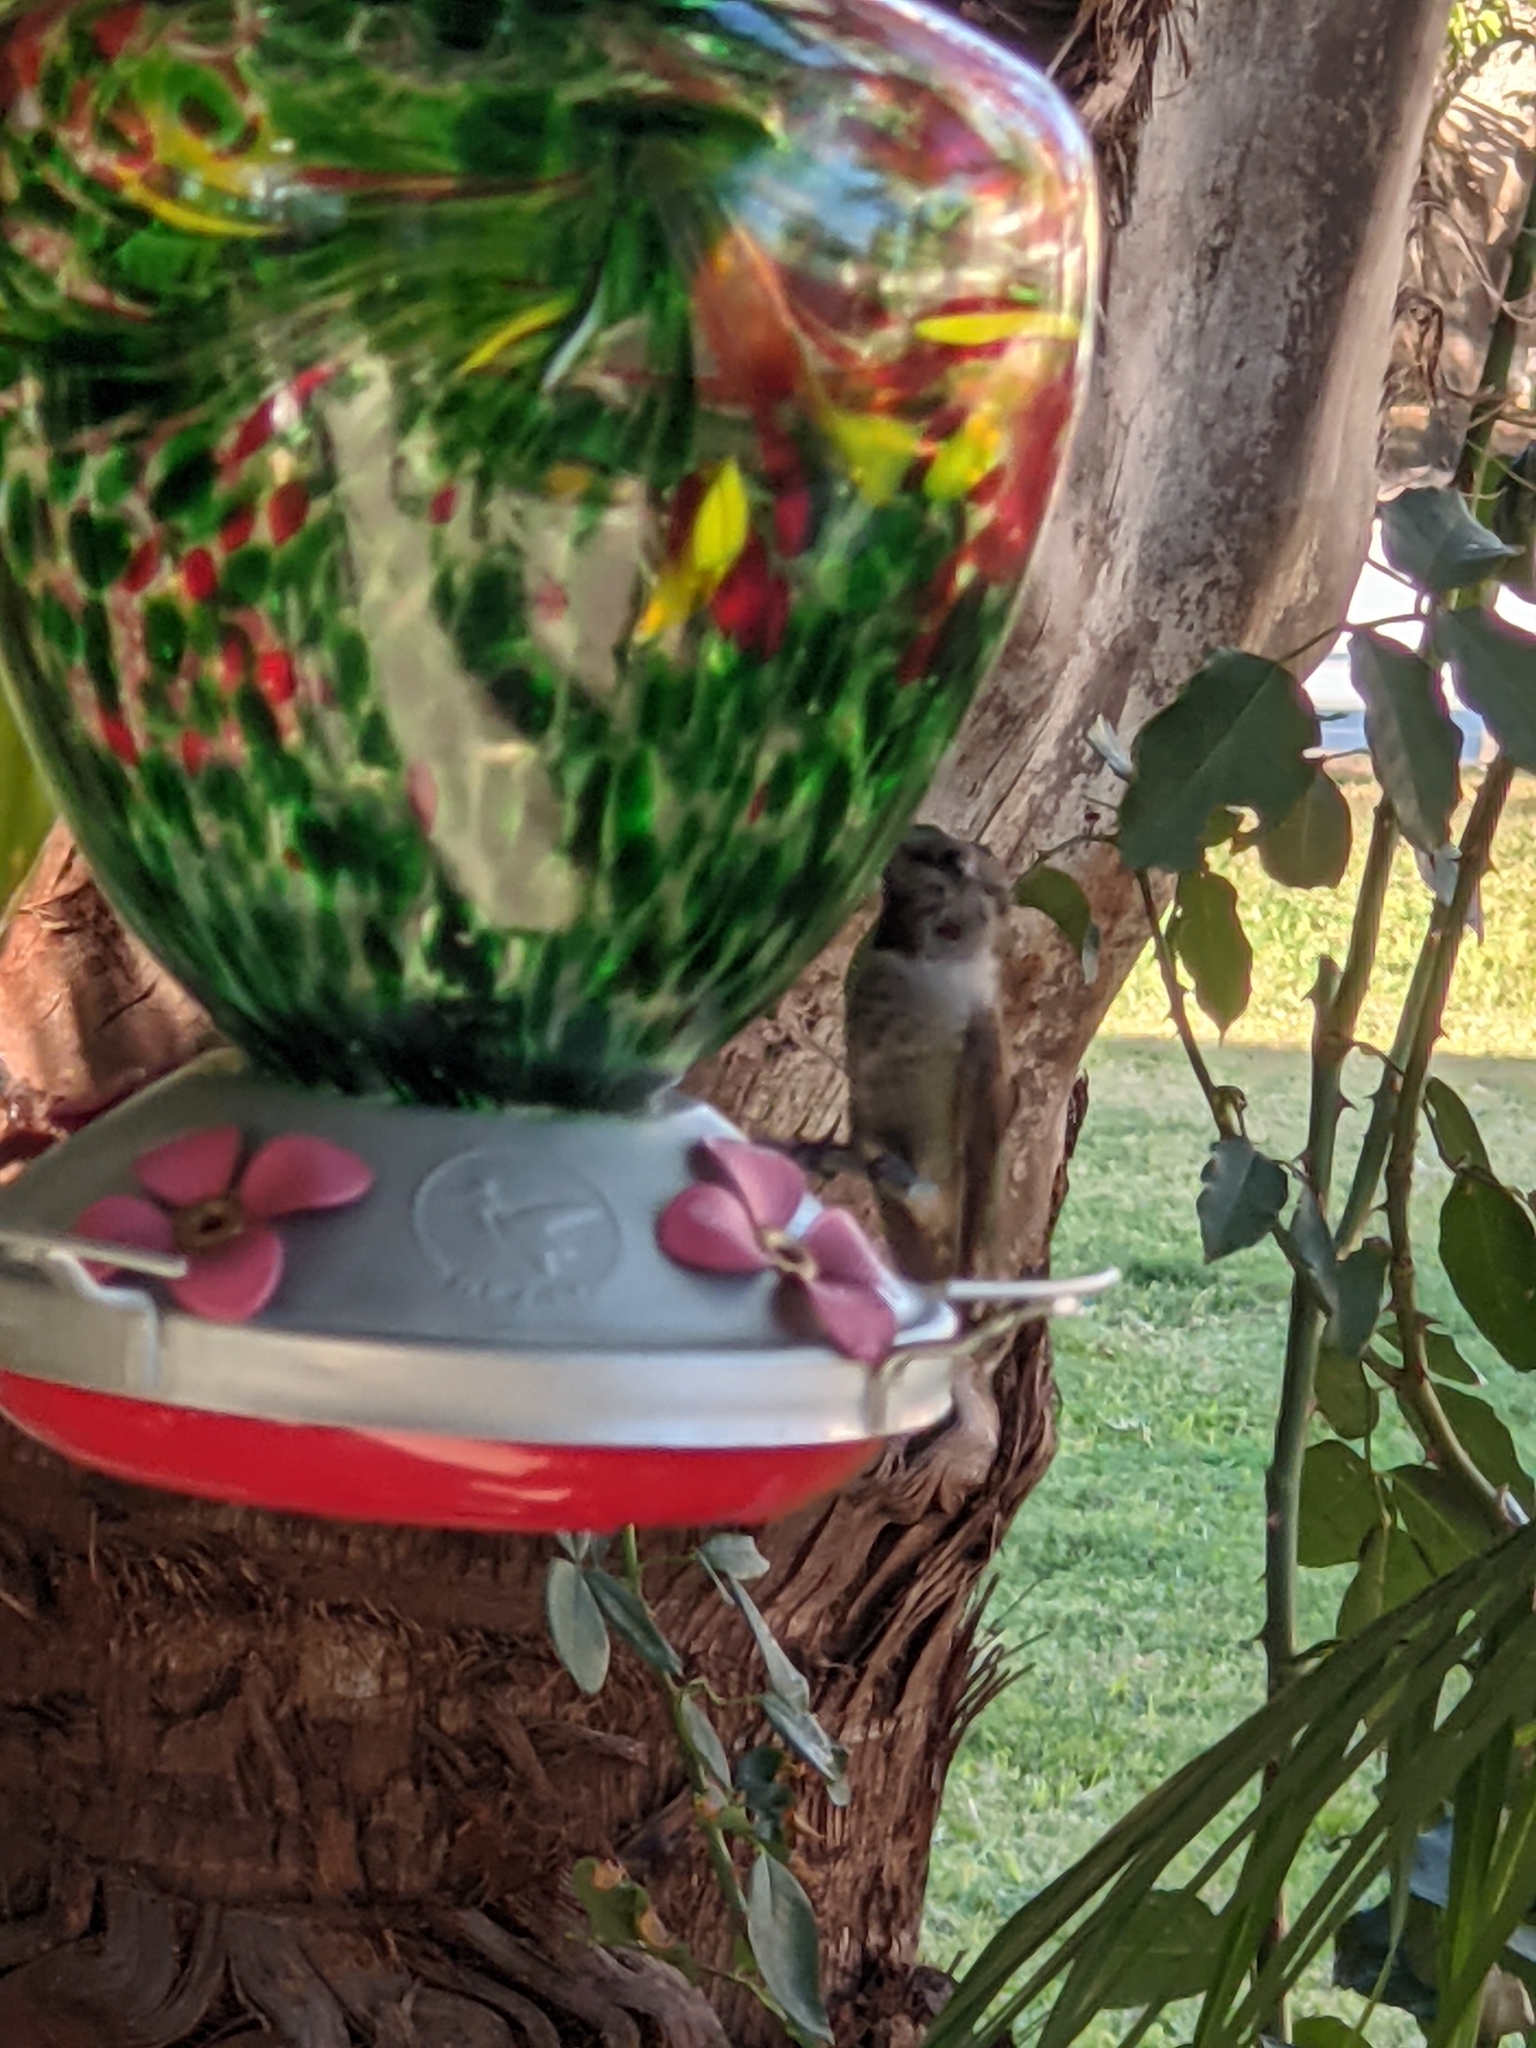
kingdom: Animalia
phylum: Chordata
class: Aves
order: Apodiformes
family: Trochilidae
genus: Calypte
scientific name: Calypte anna
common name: Anna's hummingbird
